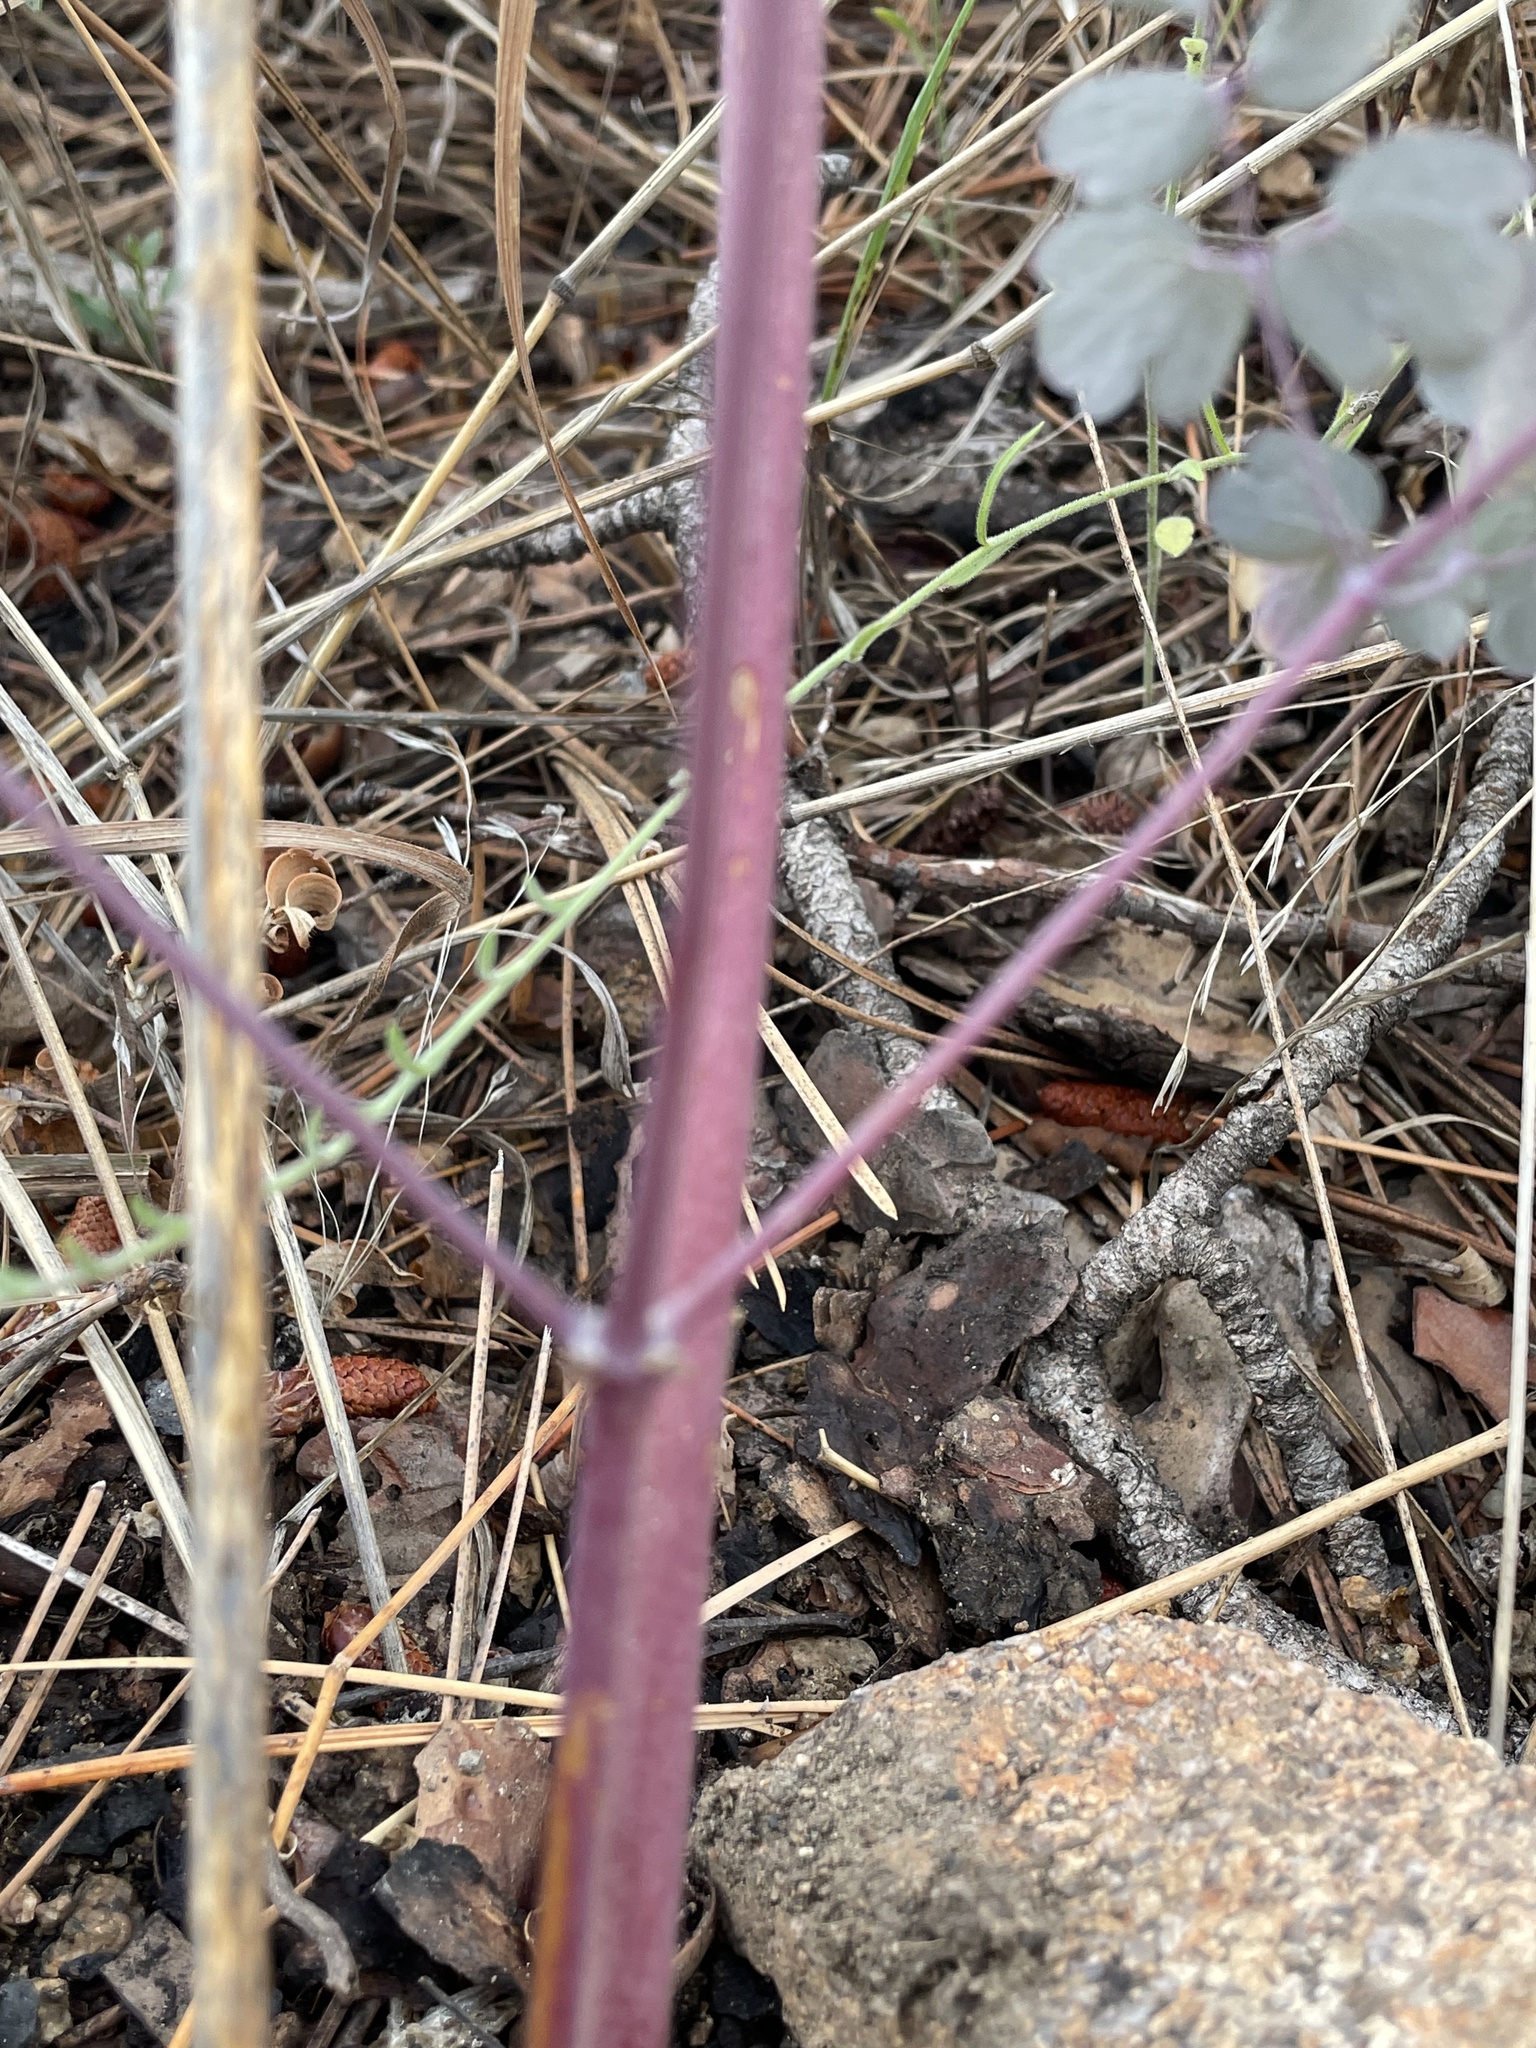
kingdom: Plantae
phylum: Tracheophyta
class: Magnoliopsida
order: Ranunculales
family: Ranunculaceae
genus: Thalictrum
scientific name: Thalictrum fendleri
